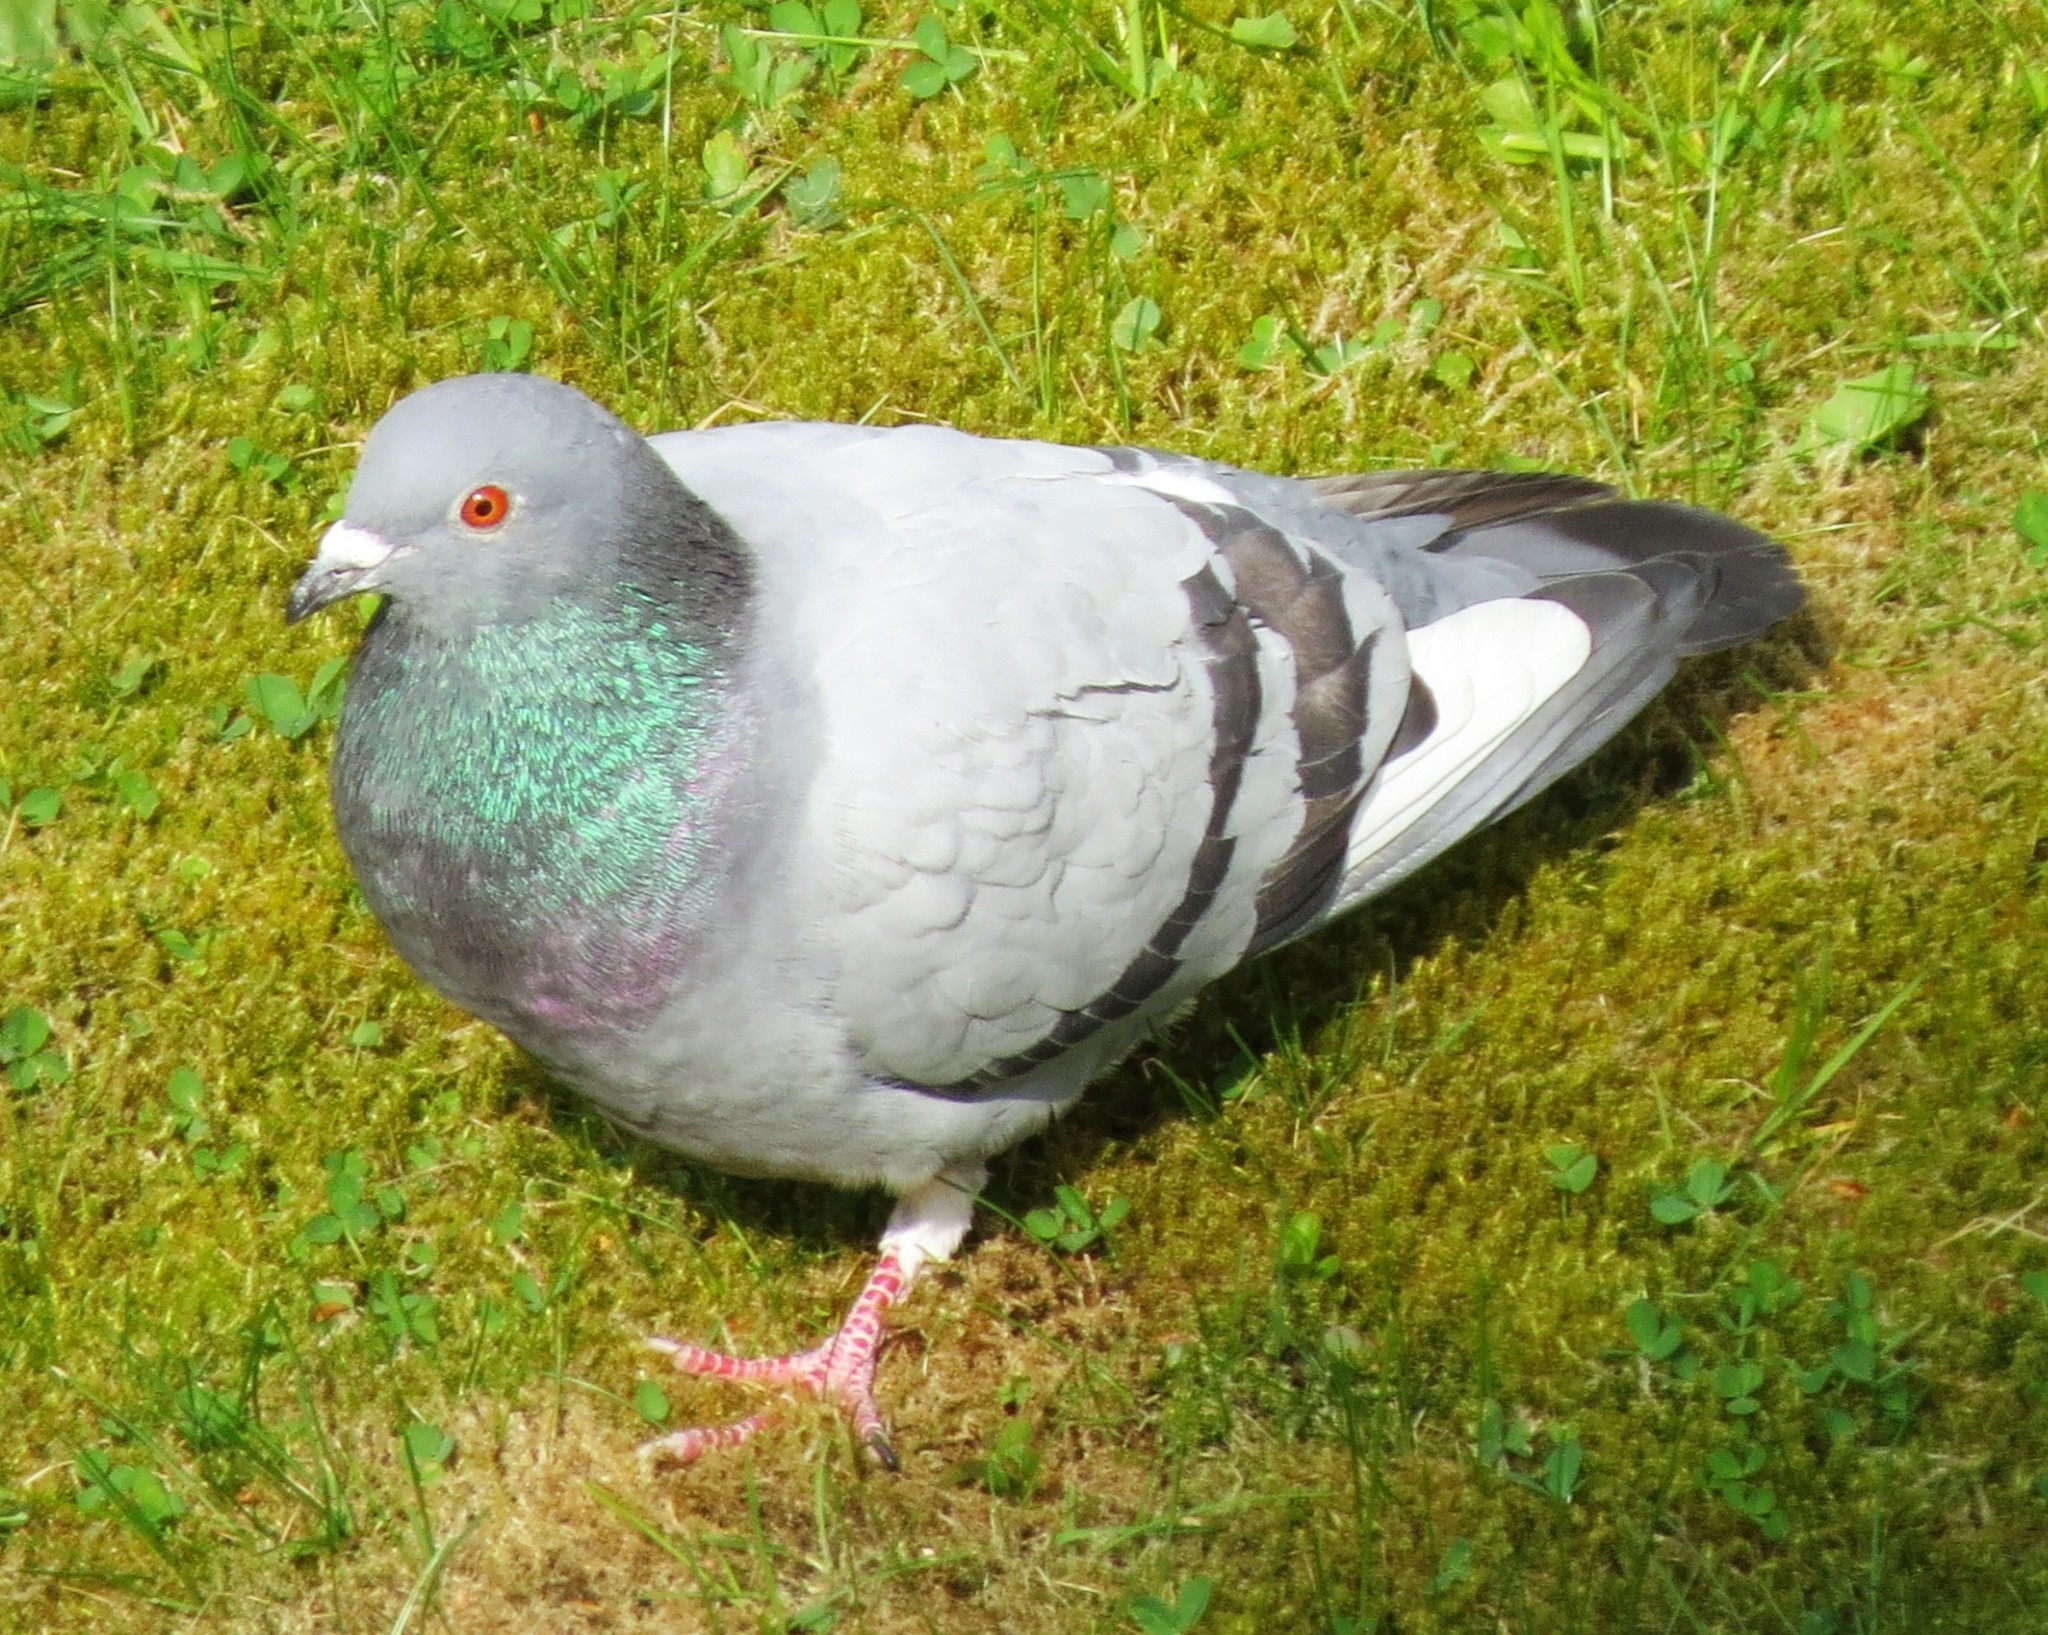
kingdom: Animalia
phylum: Chordata
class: Aves
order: Columbiformes
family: Columbidae
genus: Columba
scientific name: Columba livia
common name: Rock pigeon
